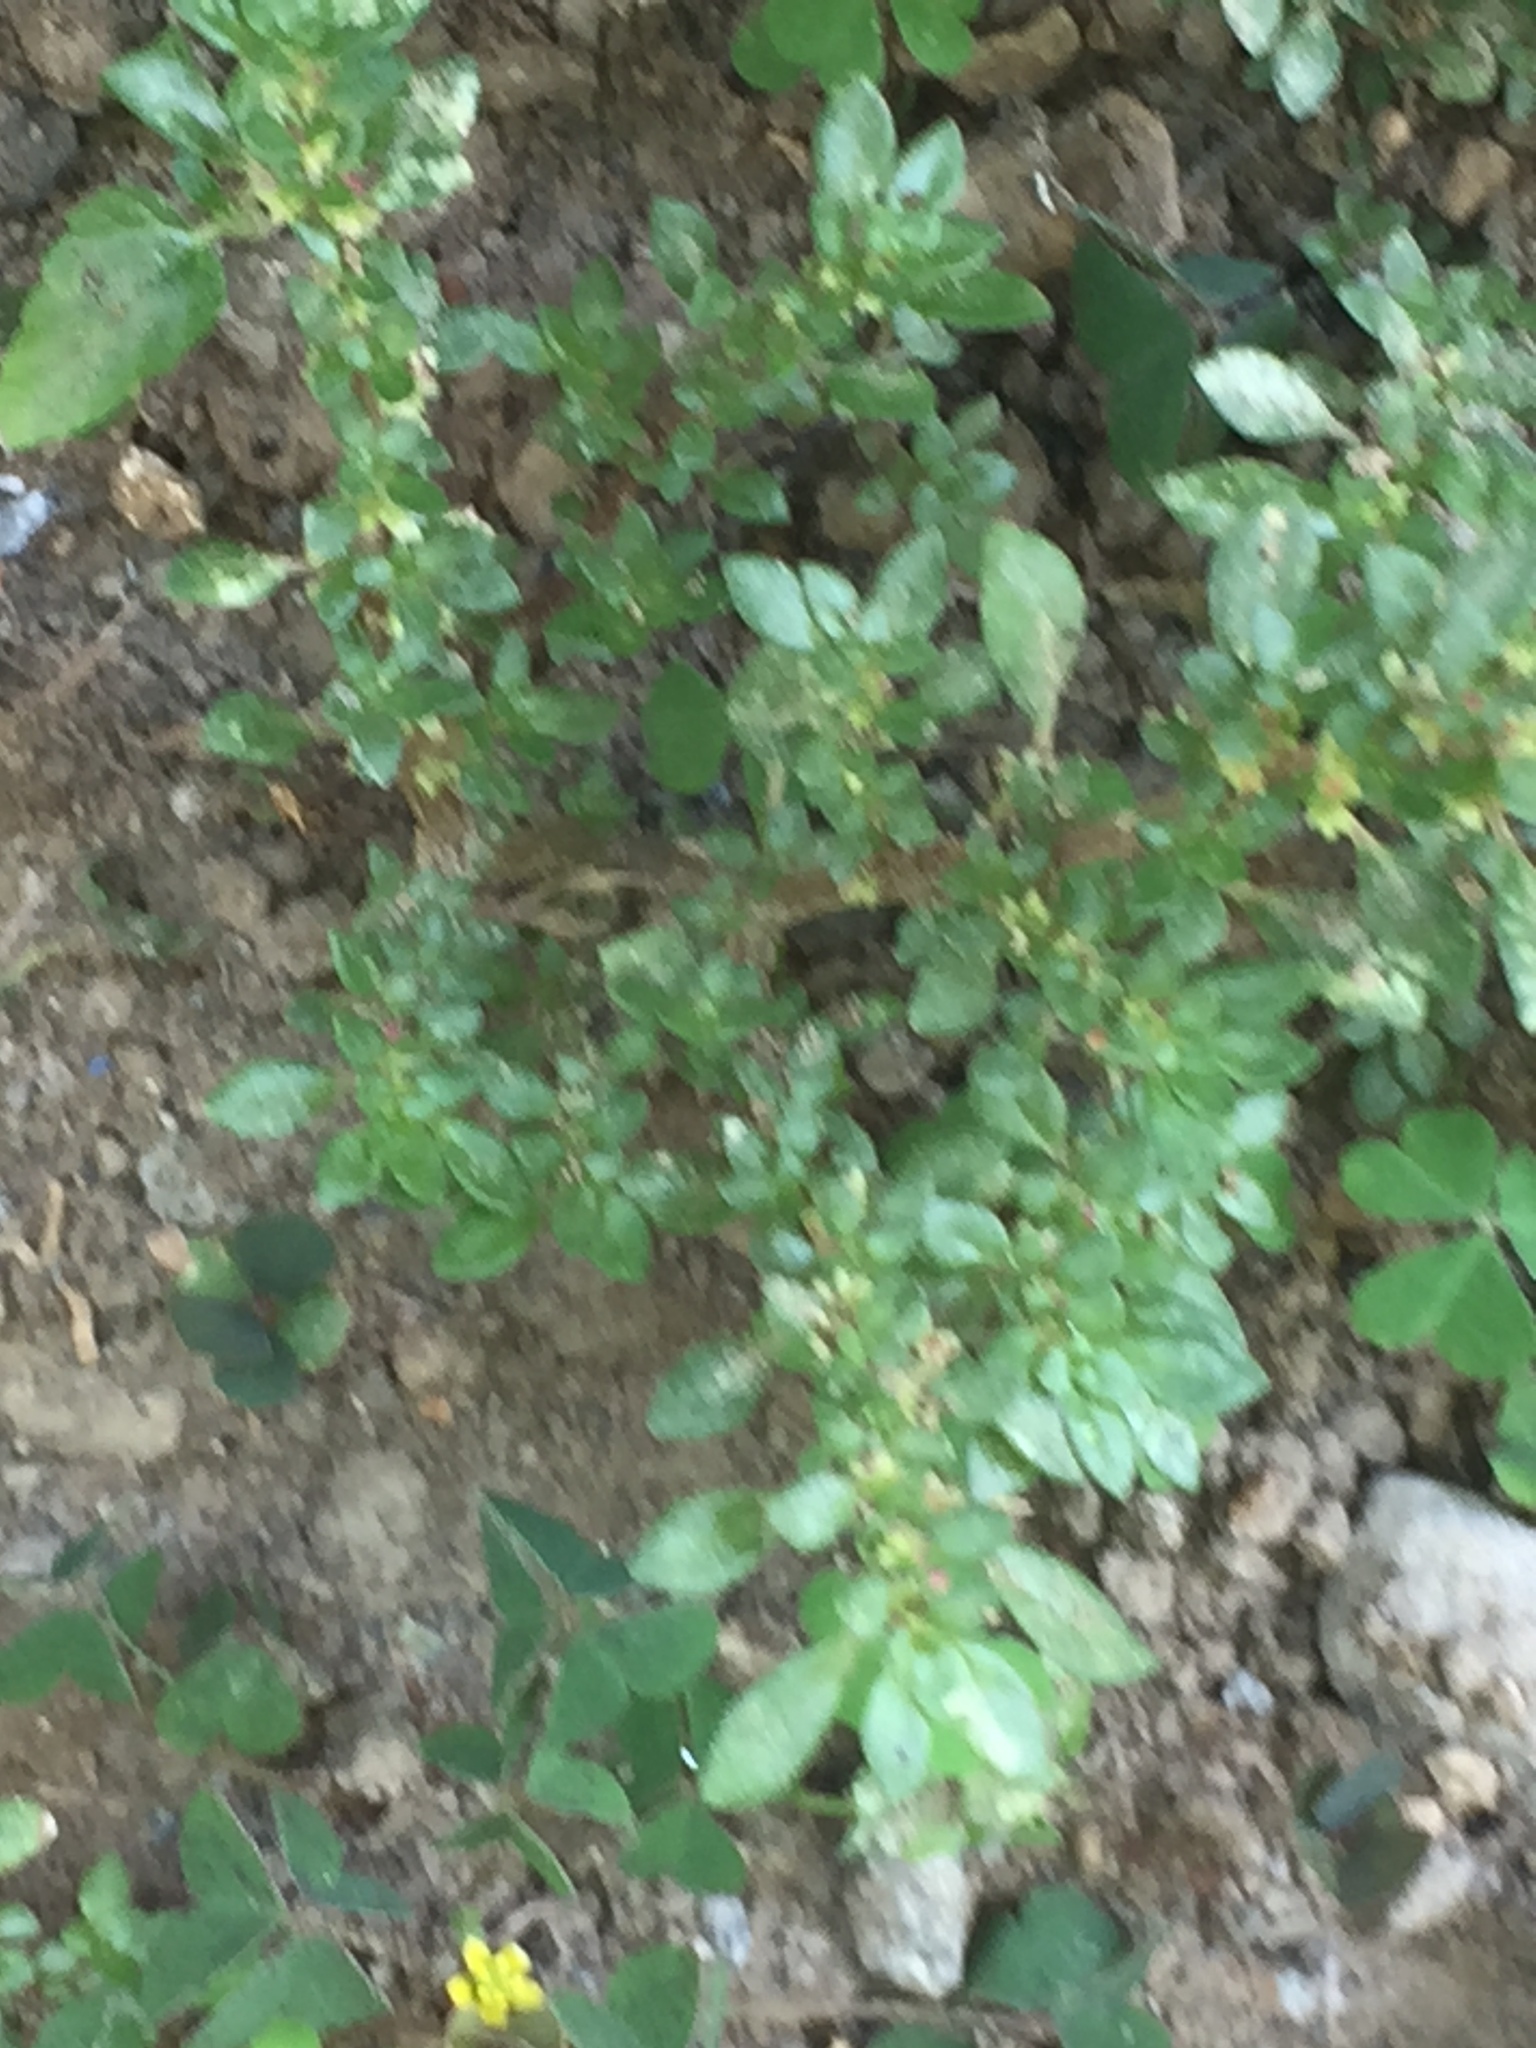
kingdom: Plantae
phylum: Tracheophyta
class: Magnoliopsida
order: Rosales
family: Urticaceae
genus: Pilea
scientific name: Pilea microphylla
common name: Artillery-plant
